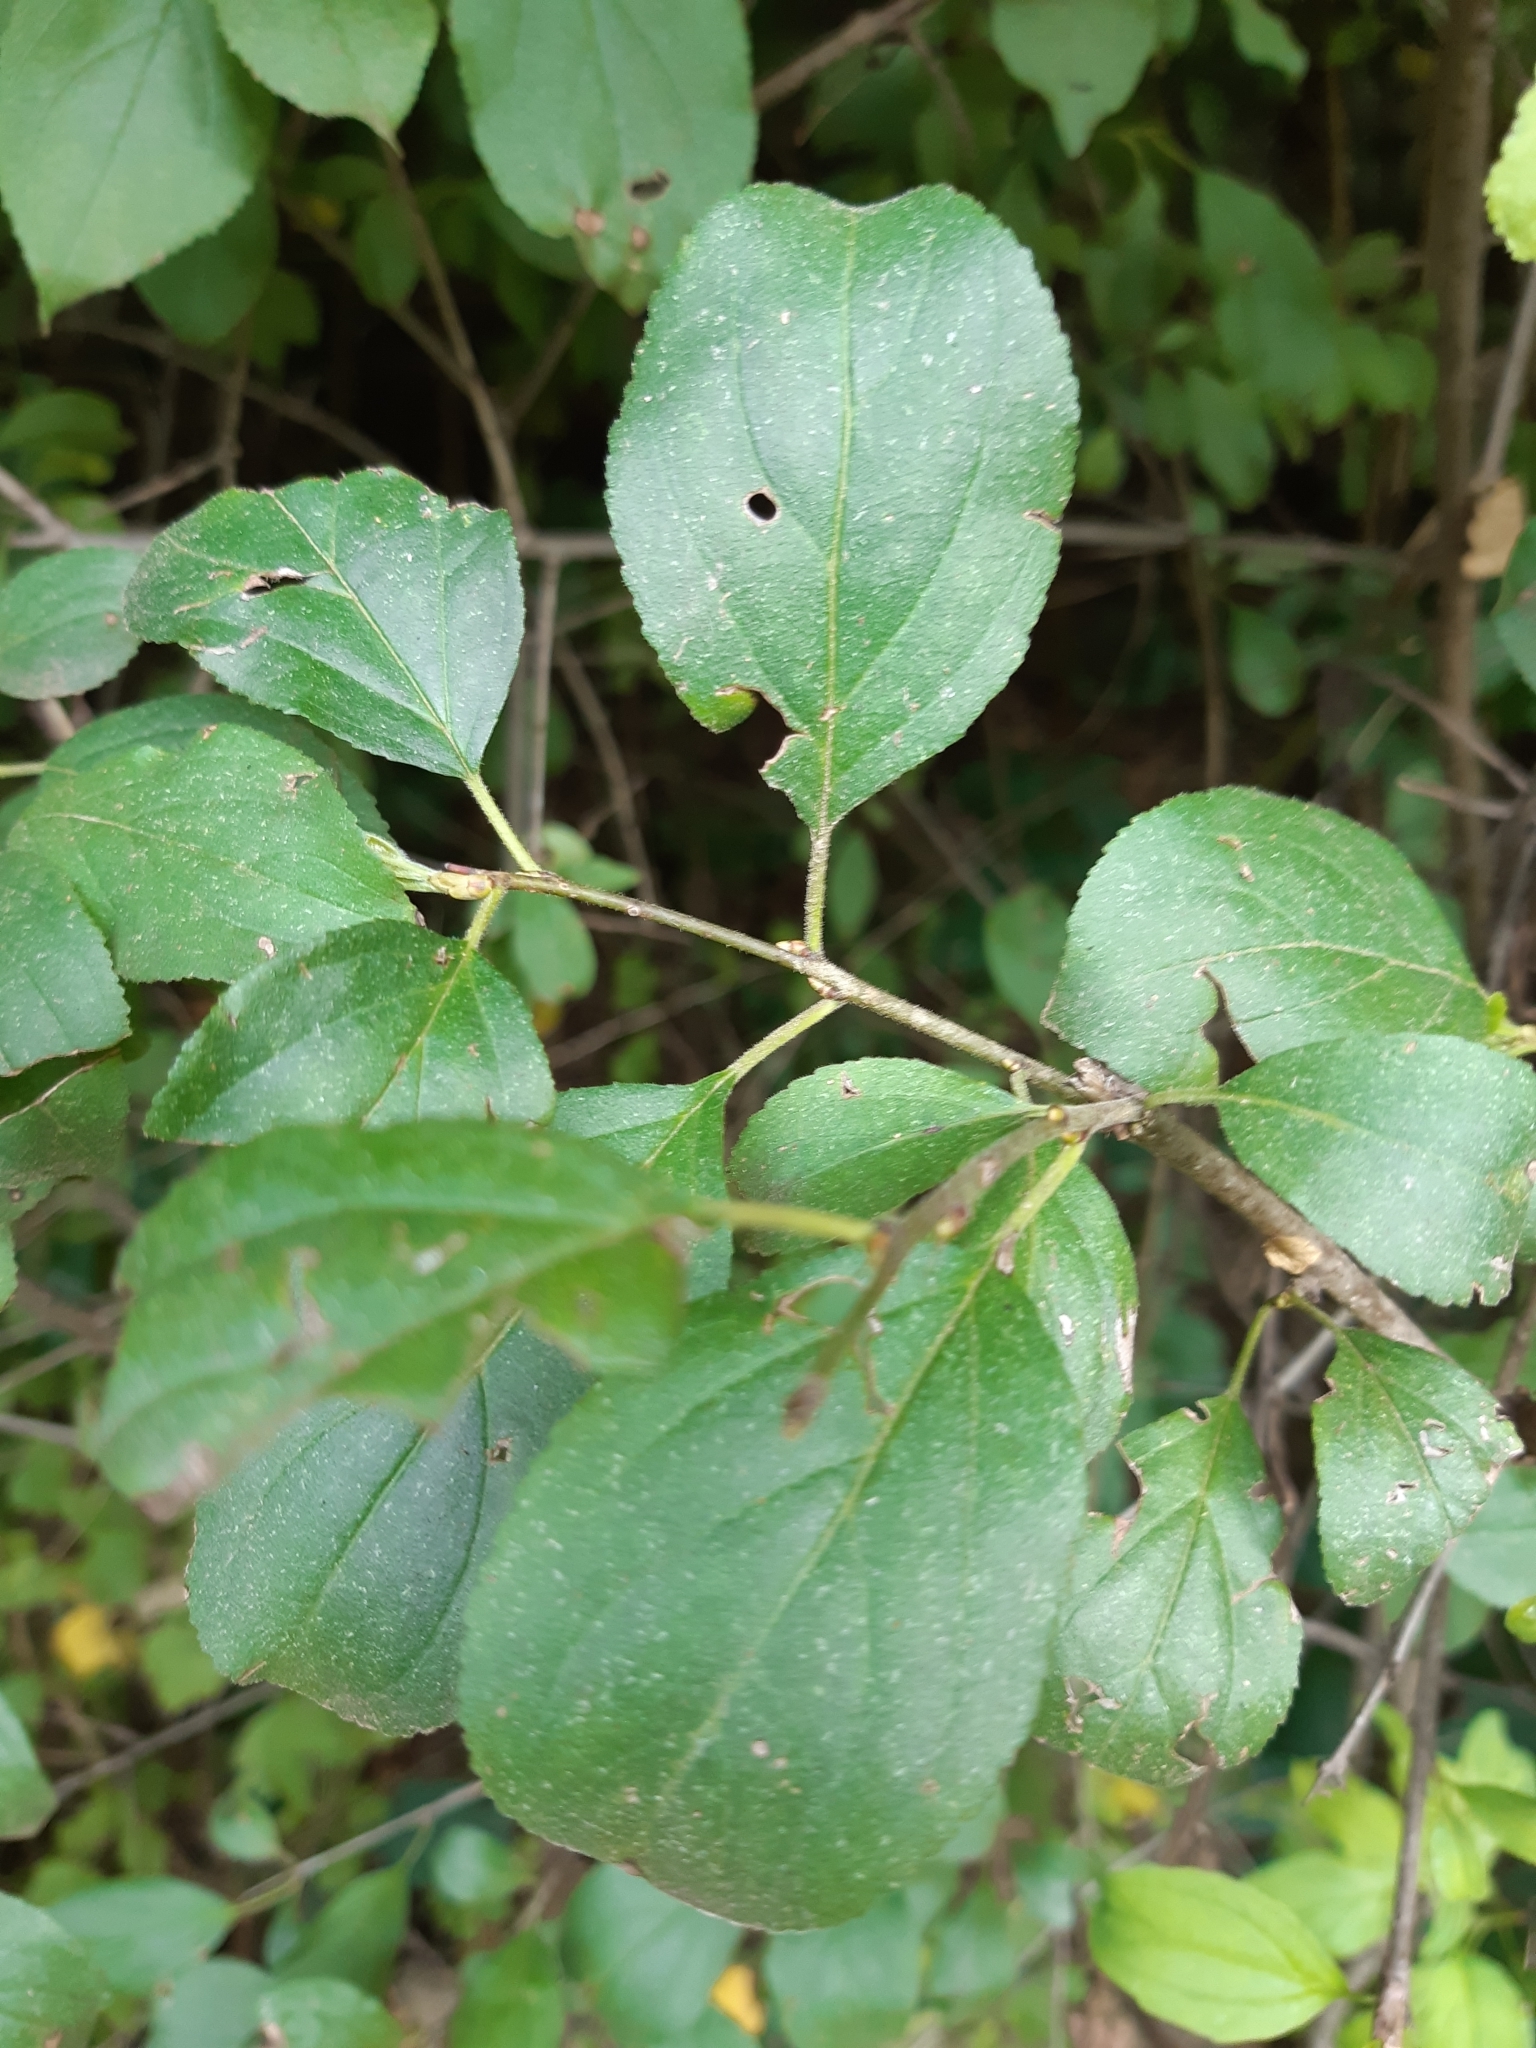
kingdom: Plantae
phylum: Tracheophyta
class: Magnoliopsida
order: Rosales
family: Rhamnaceae
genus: Rhamnus
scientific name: Rhamnus cathartica
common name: Common buckthorn
